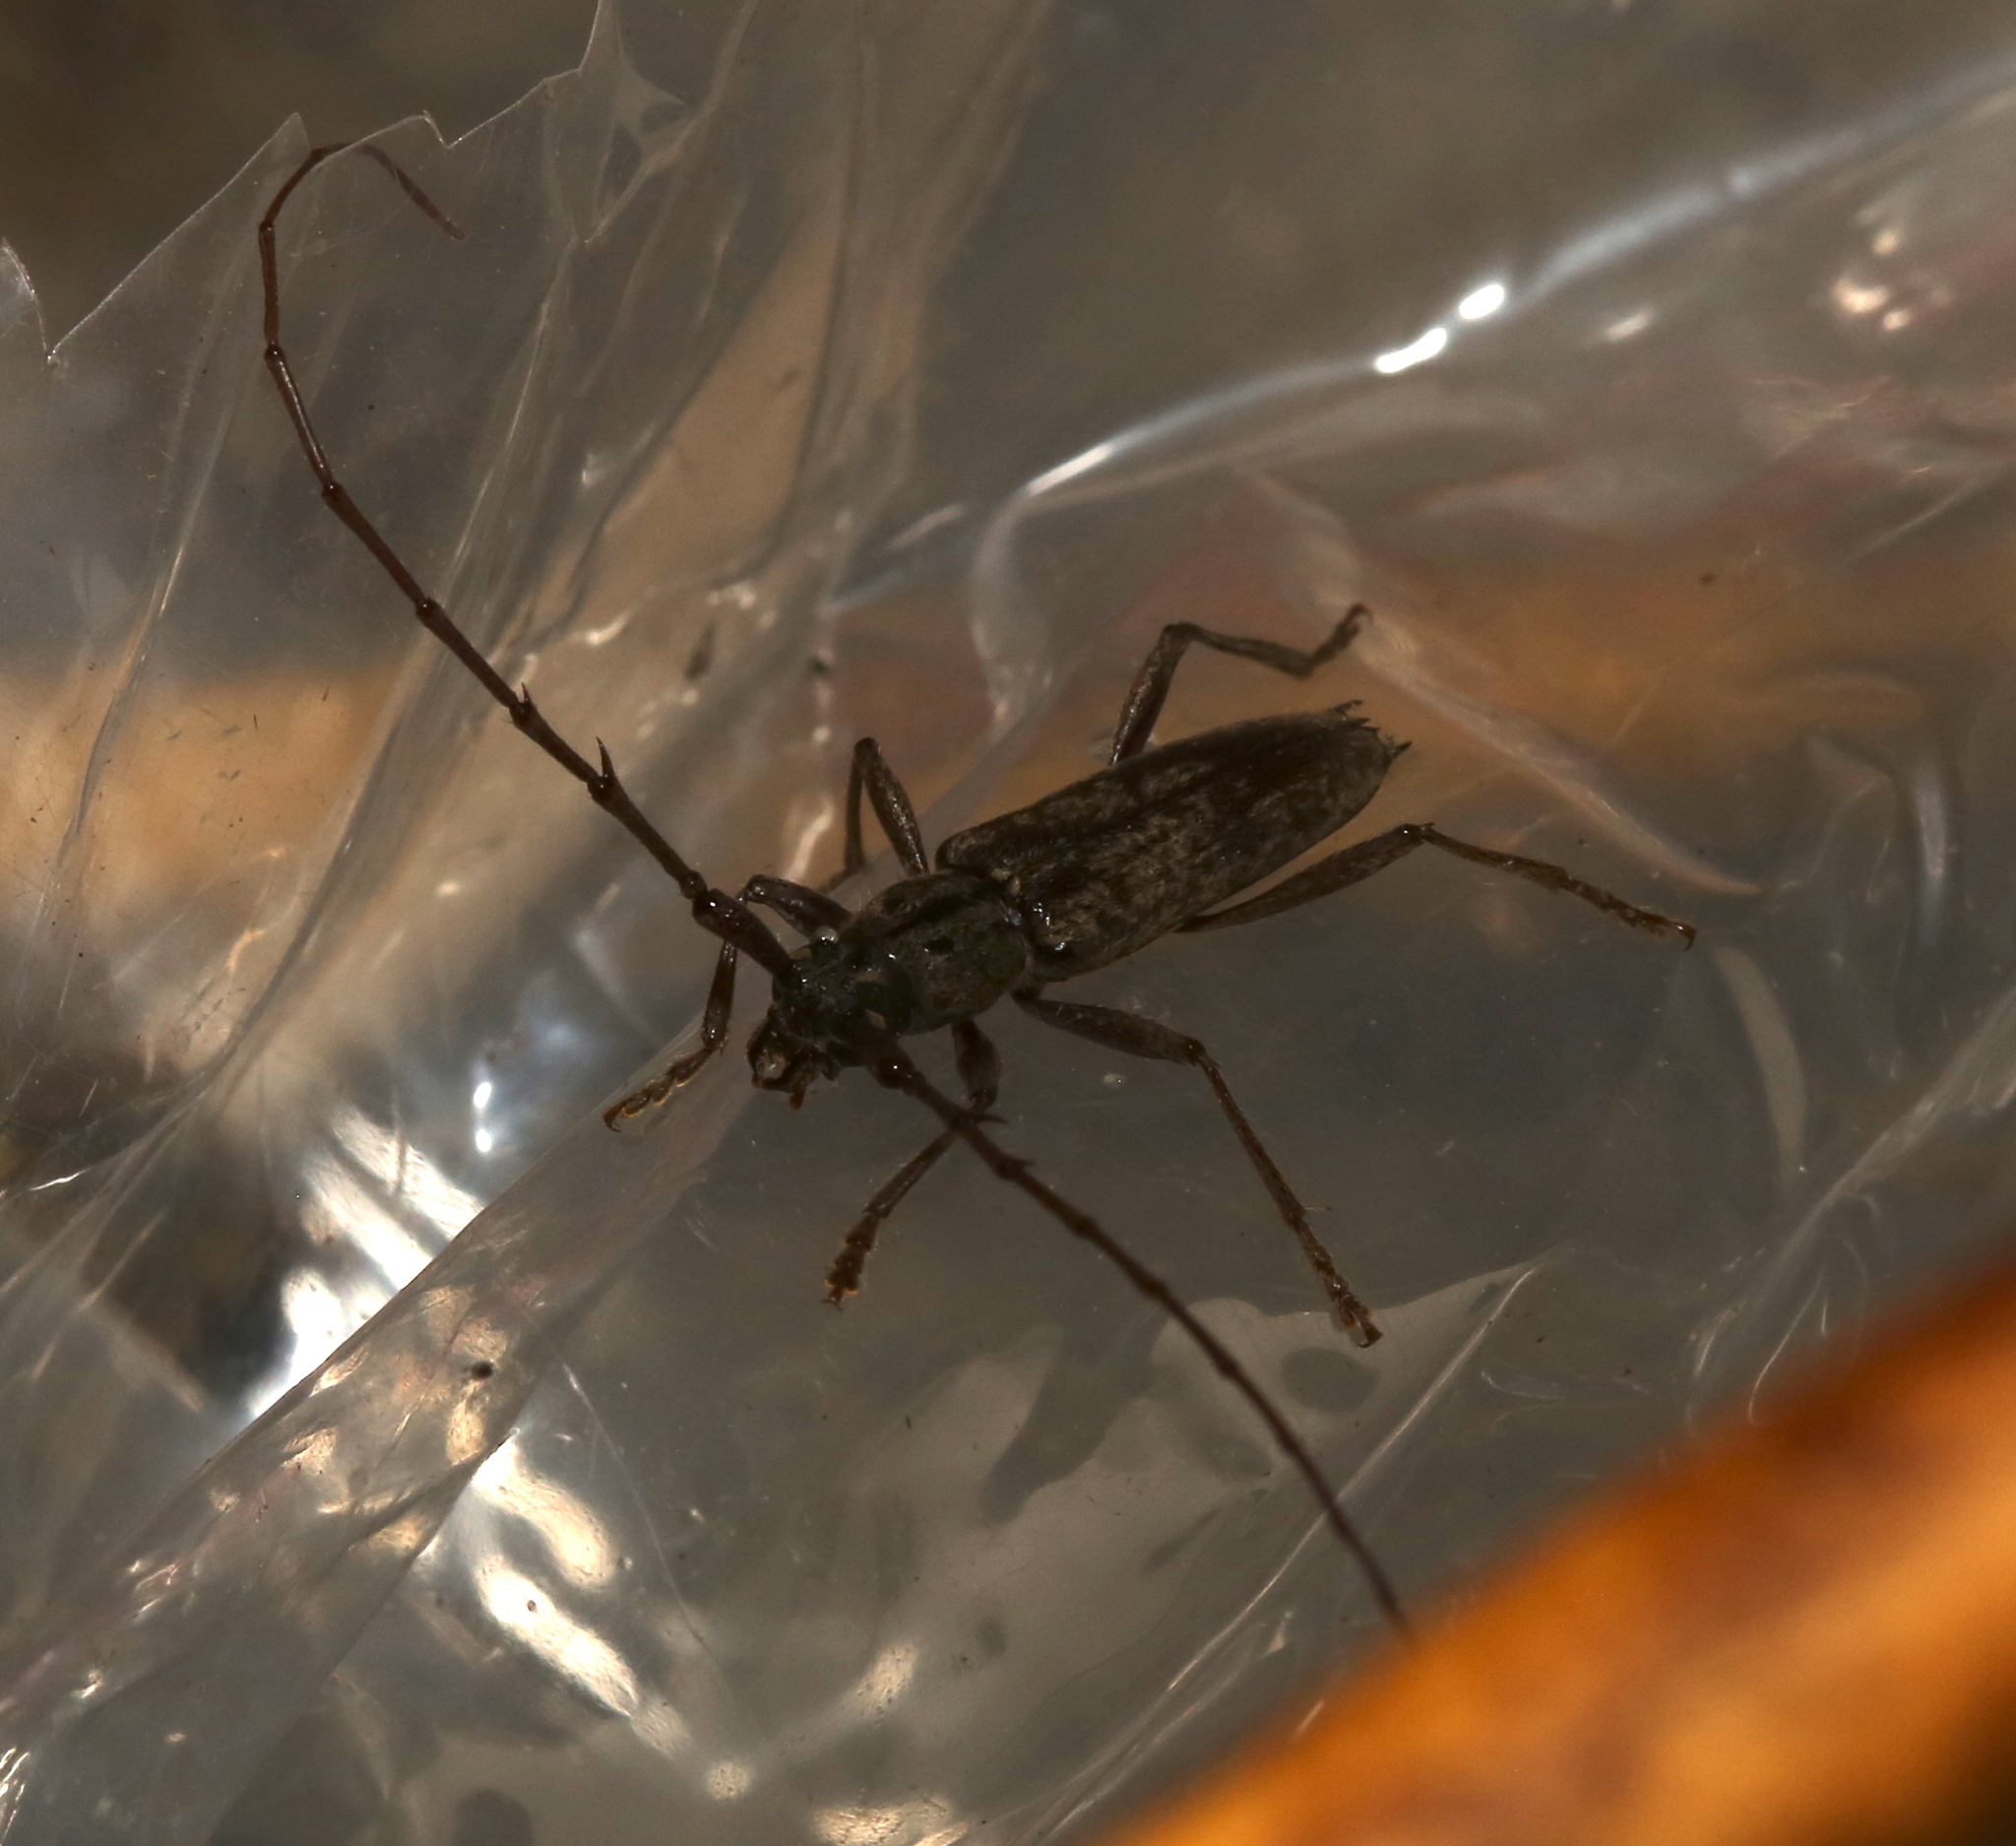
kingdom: Animalia
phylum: Arthropoda
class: Insecta
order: Coleoptera
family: Cerambycidae
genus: Elaphidion
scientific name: Elaphidion mucronatum
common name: Spined oak borer
